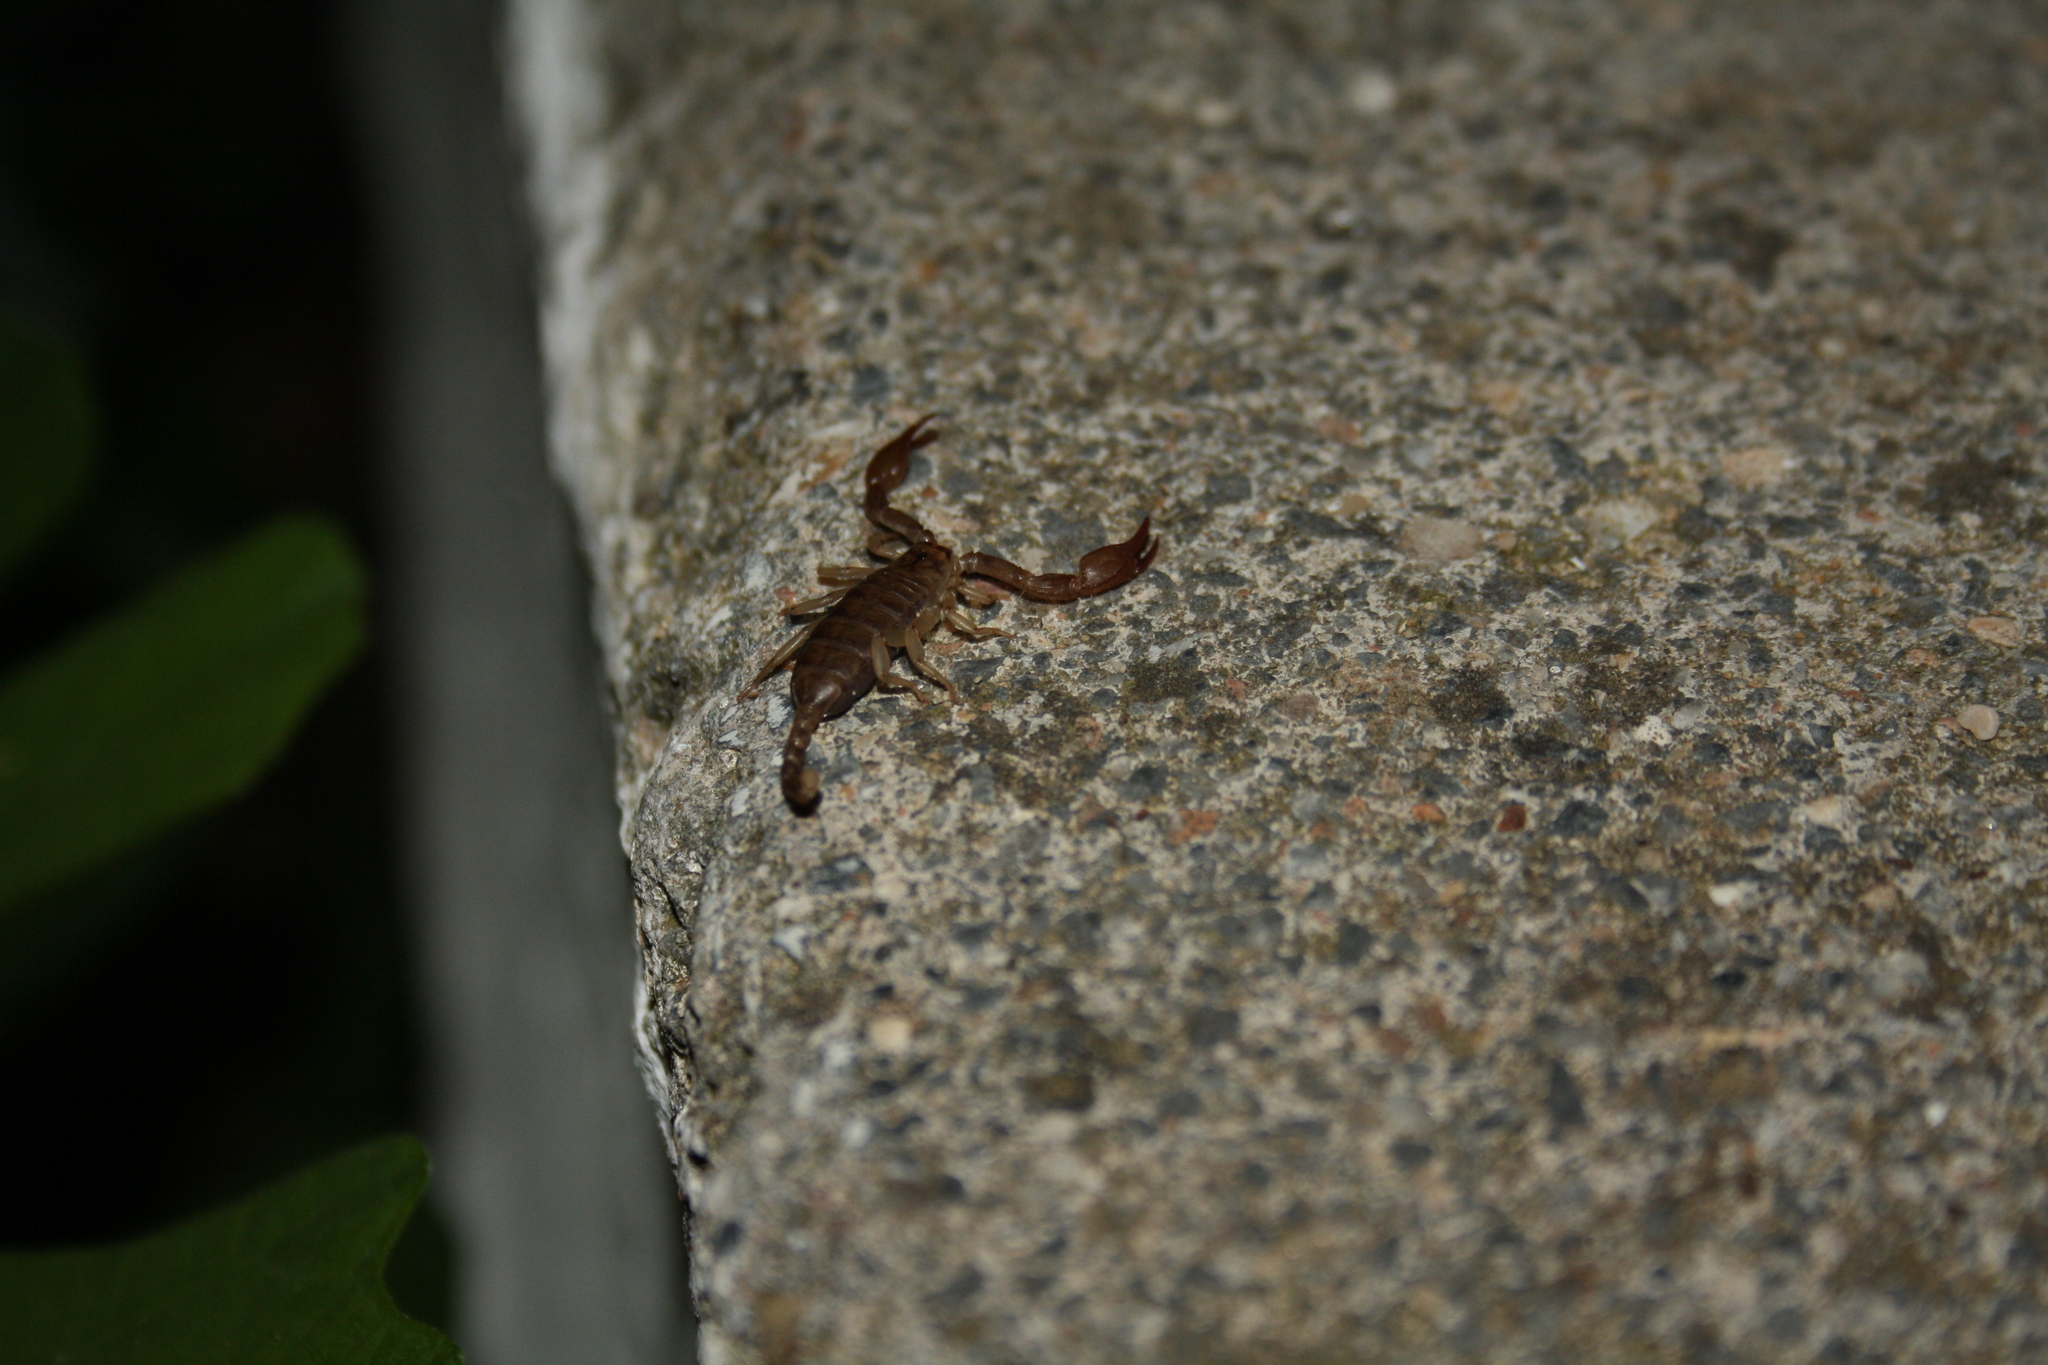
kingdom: Animalia
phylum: Arthropoda
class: Arachnida
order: Scorpiones
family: Euscorpiidae
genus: Euscorpius
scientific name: Euscorpius
